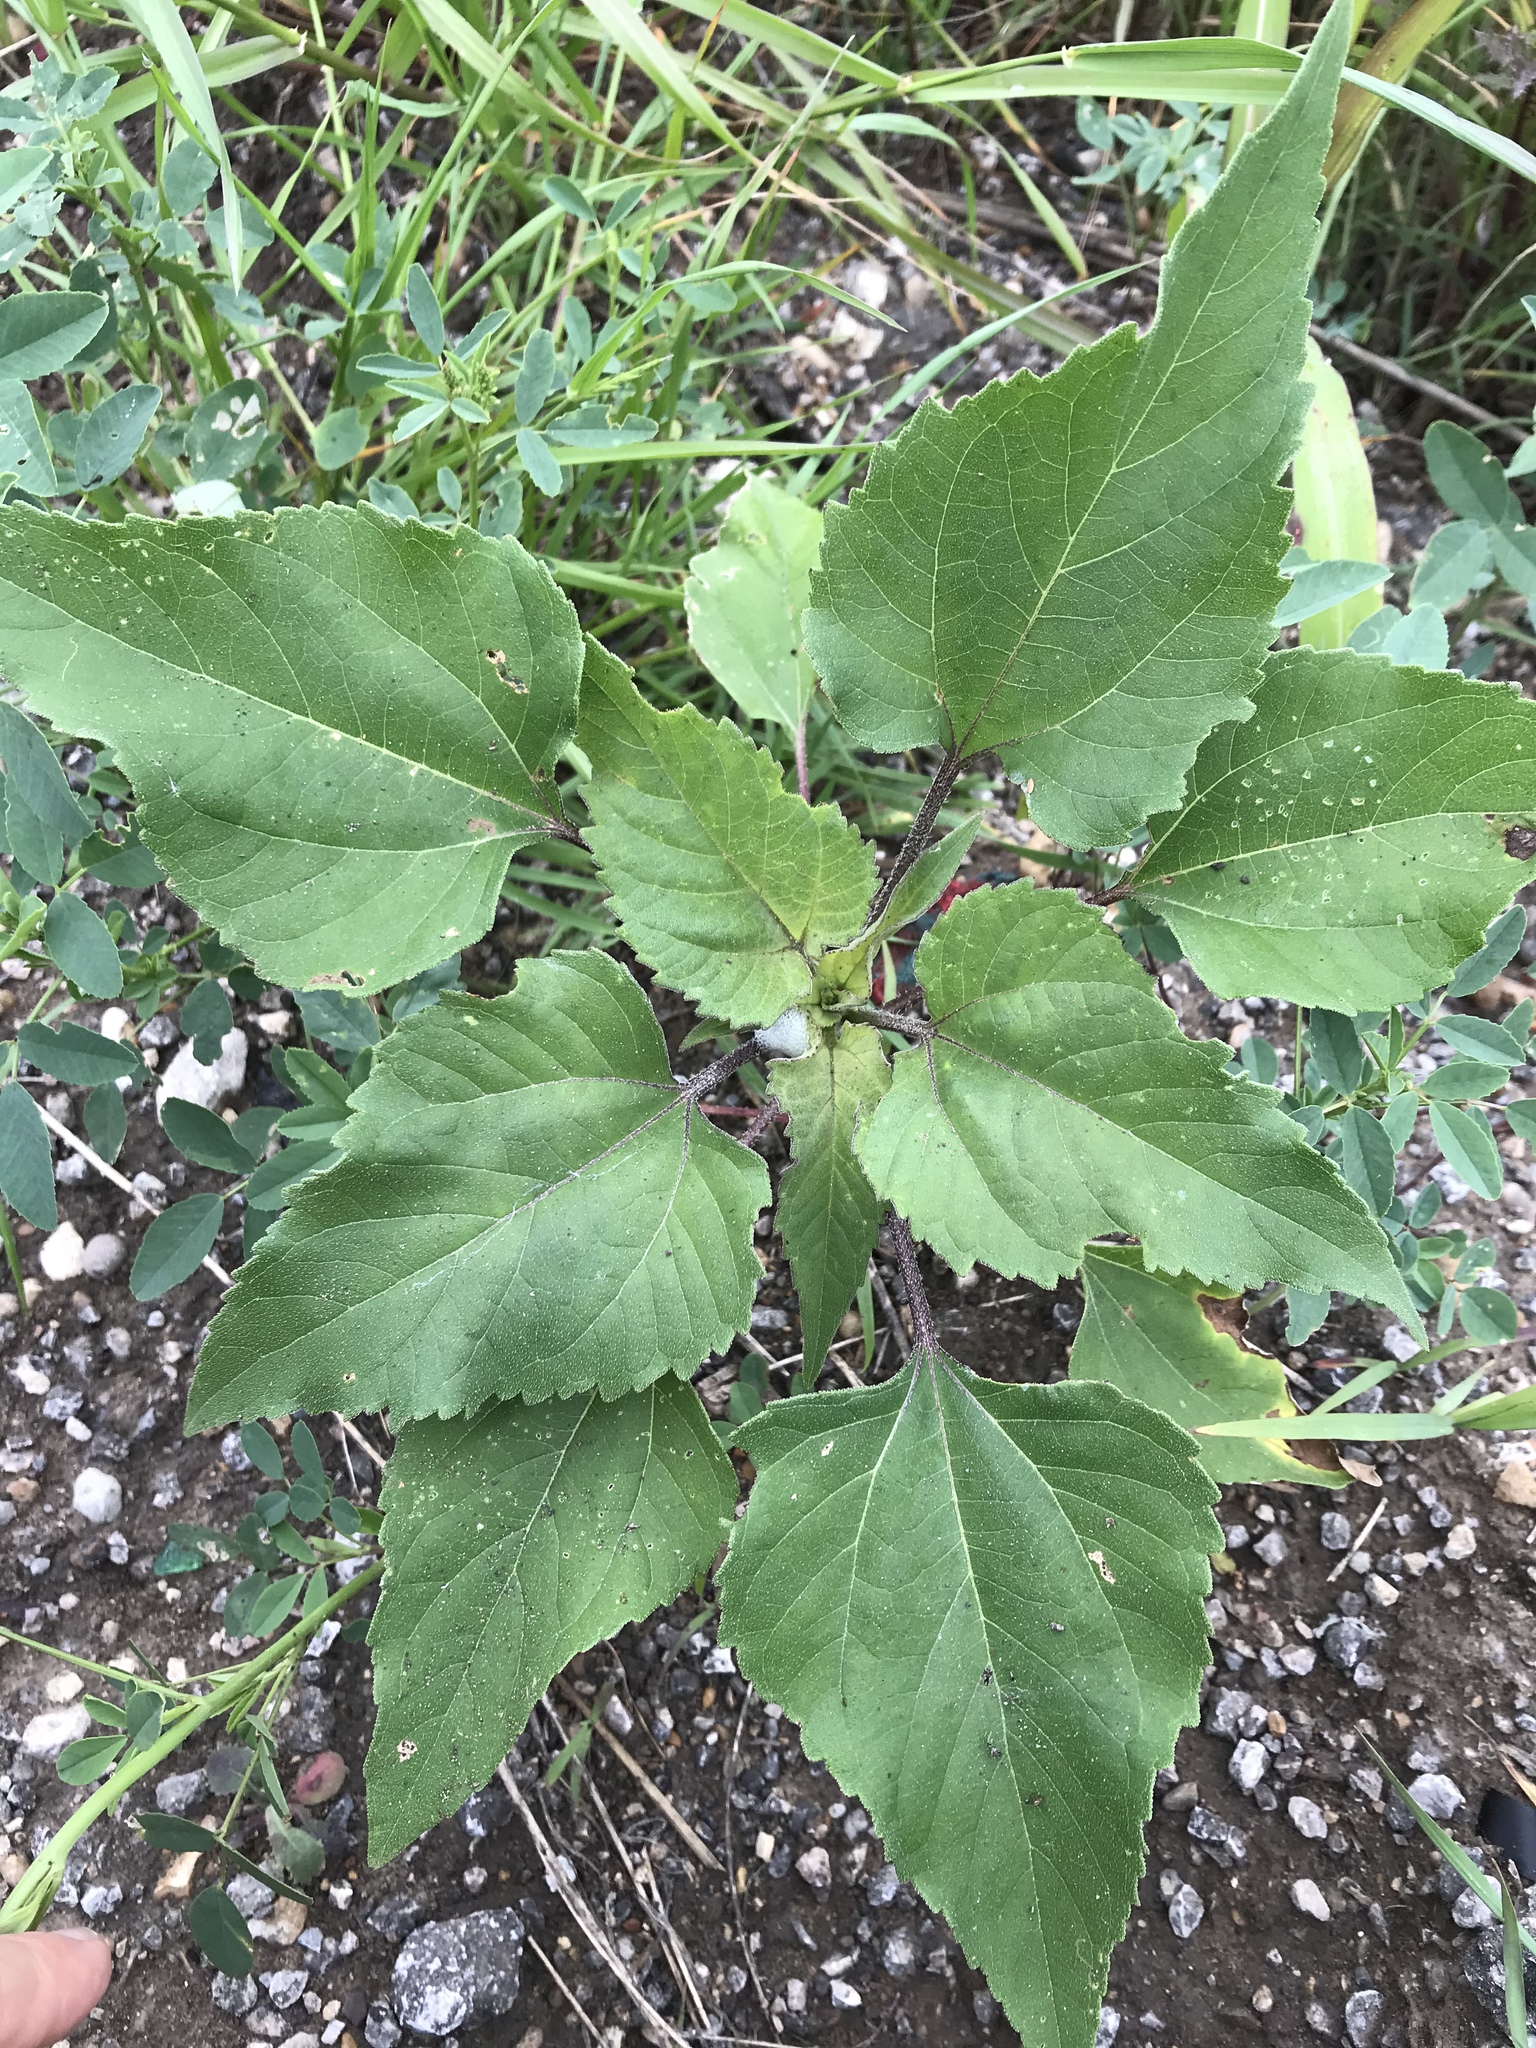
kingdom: Plantae
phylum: Tracheophyta
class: Magnoliopsida
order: Asterales
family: Asteraceae
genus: Xanthium
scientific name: Xanthium strumarium
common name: Rough cocklebur
